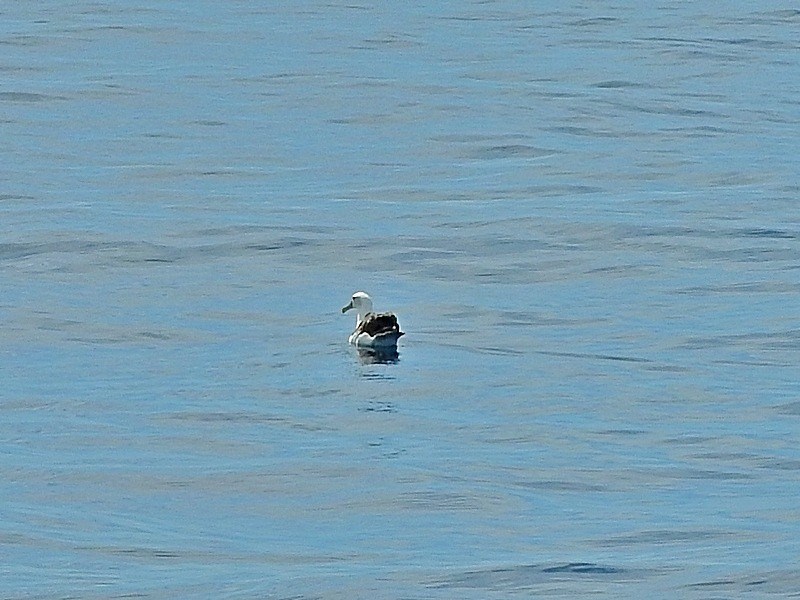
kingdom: Animalia
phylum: Chordata
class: Aves
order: Procellariiformes
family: Diomedeidae
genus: Thalassarche
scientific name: Thalassarche cauta
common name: Shy albatross
